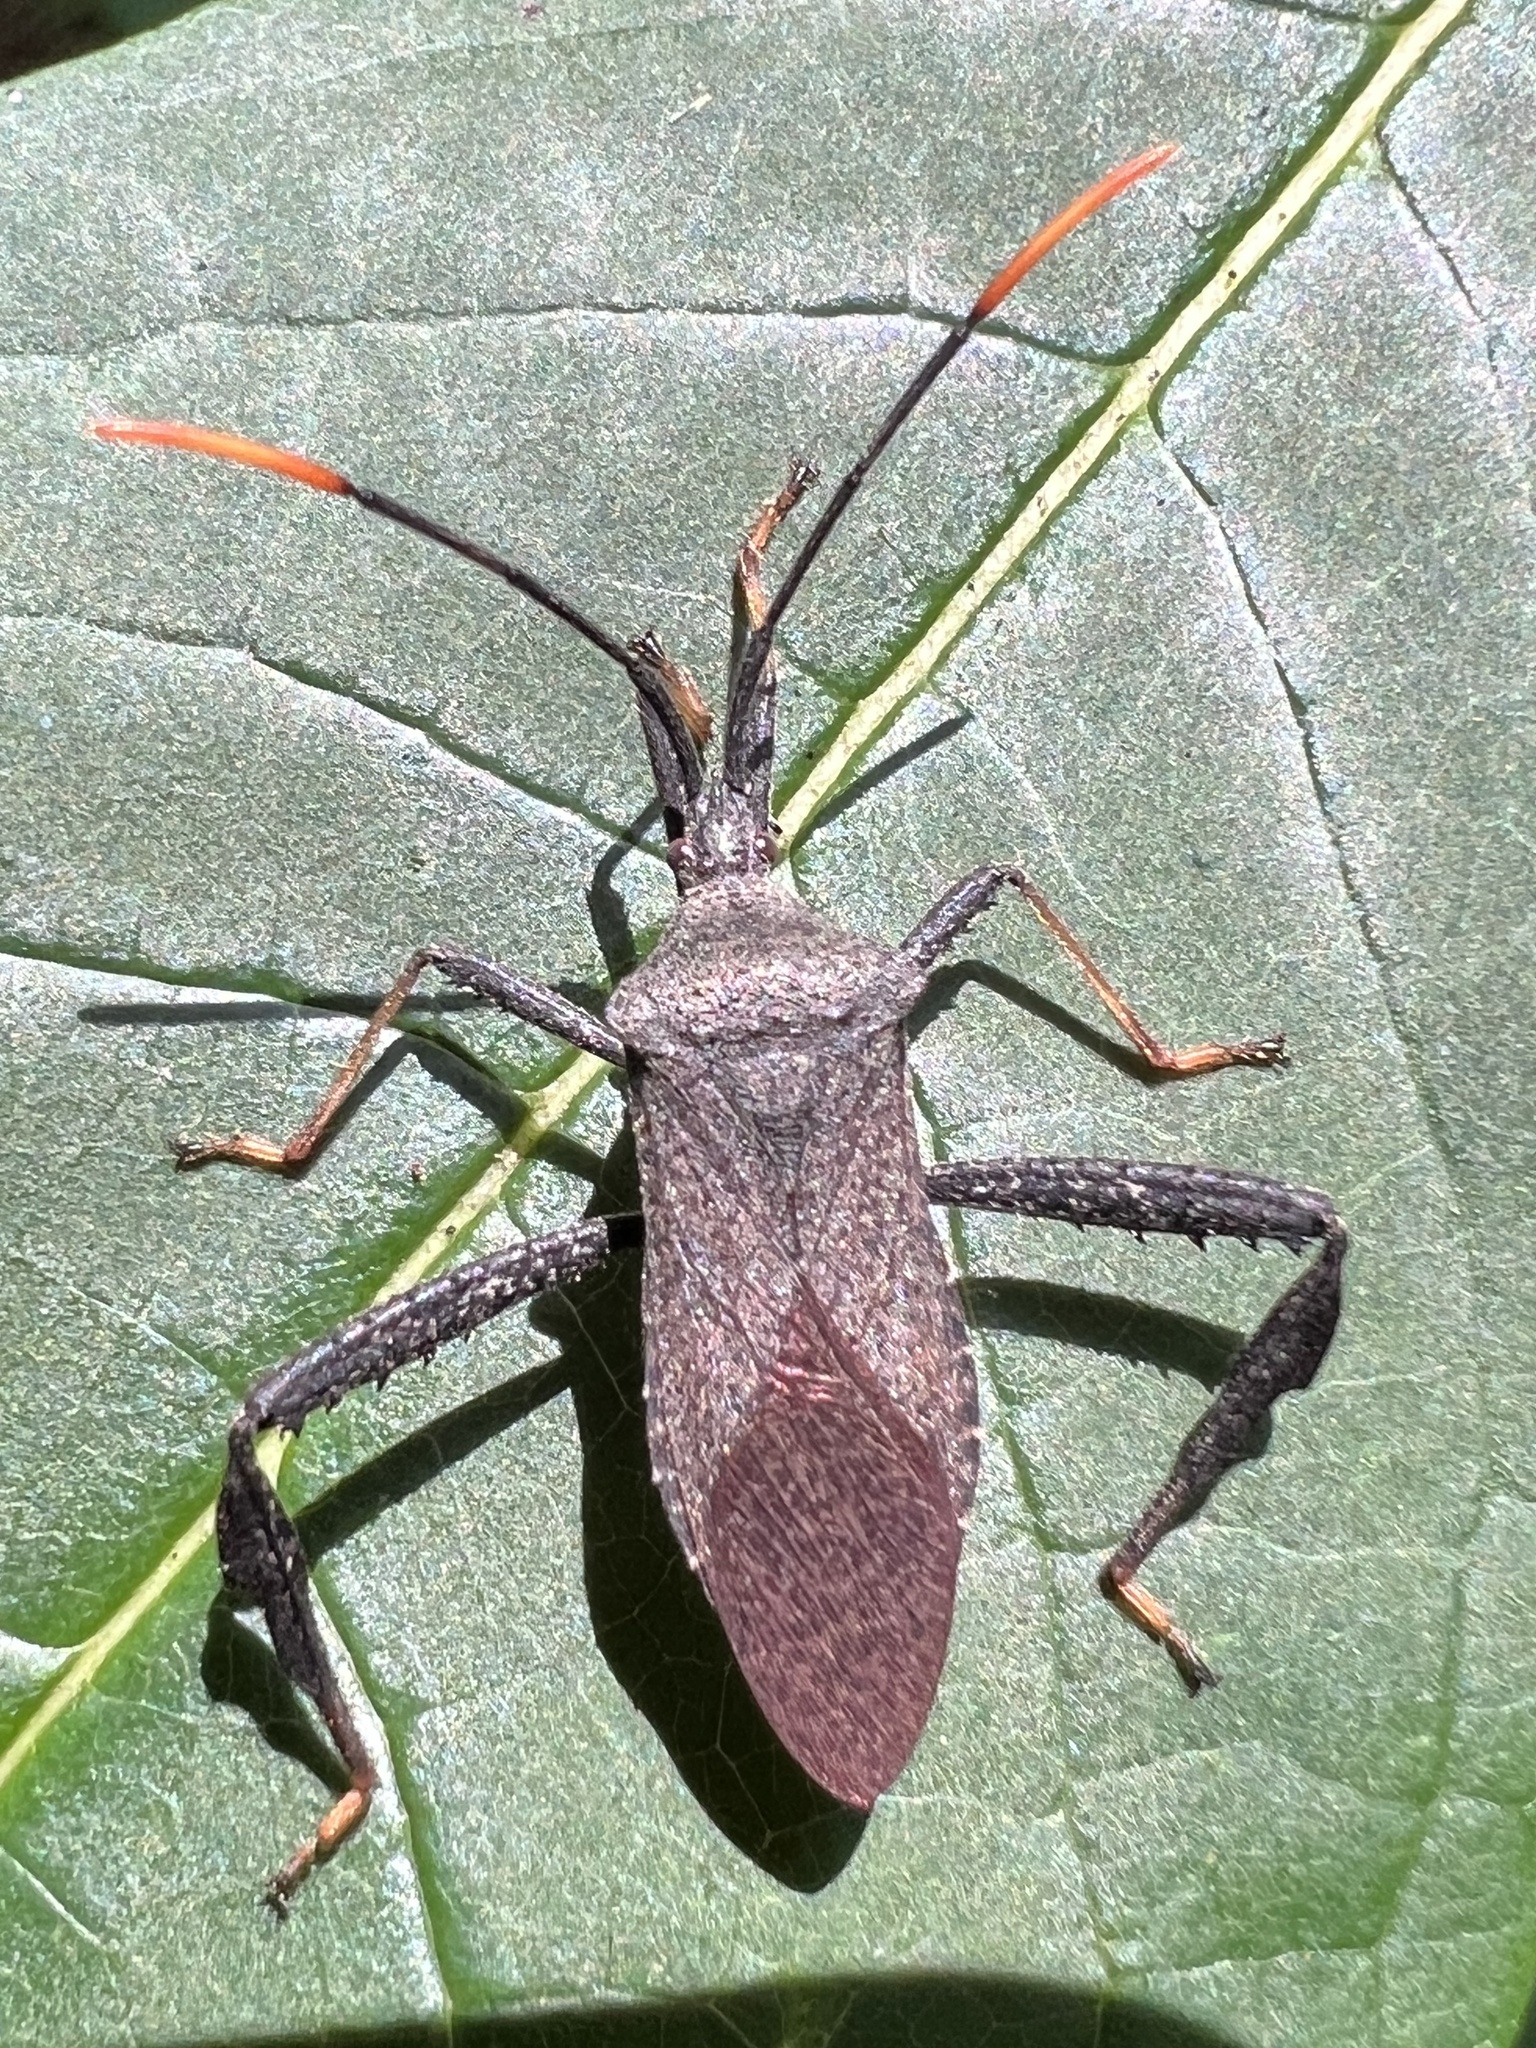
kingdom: Animalia
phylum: Arthropoda
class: Insecta
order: Hemiptera
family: Coreidae
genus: Acanthocephala
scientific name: Acanthocephala terminalis
